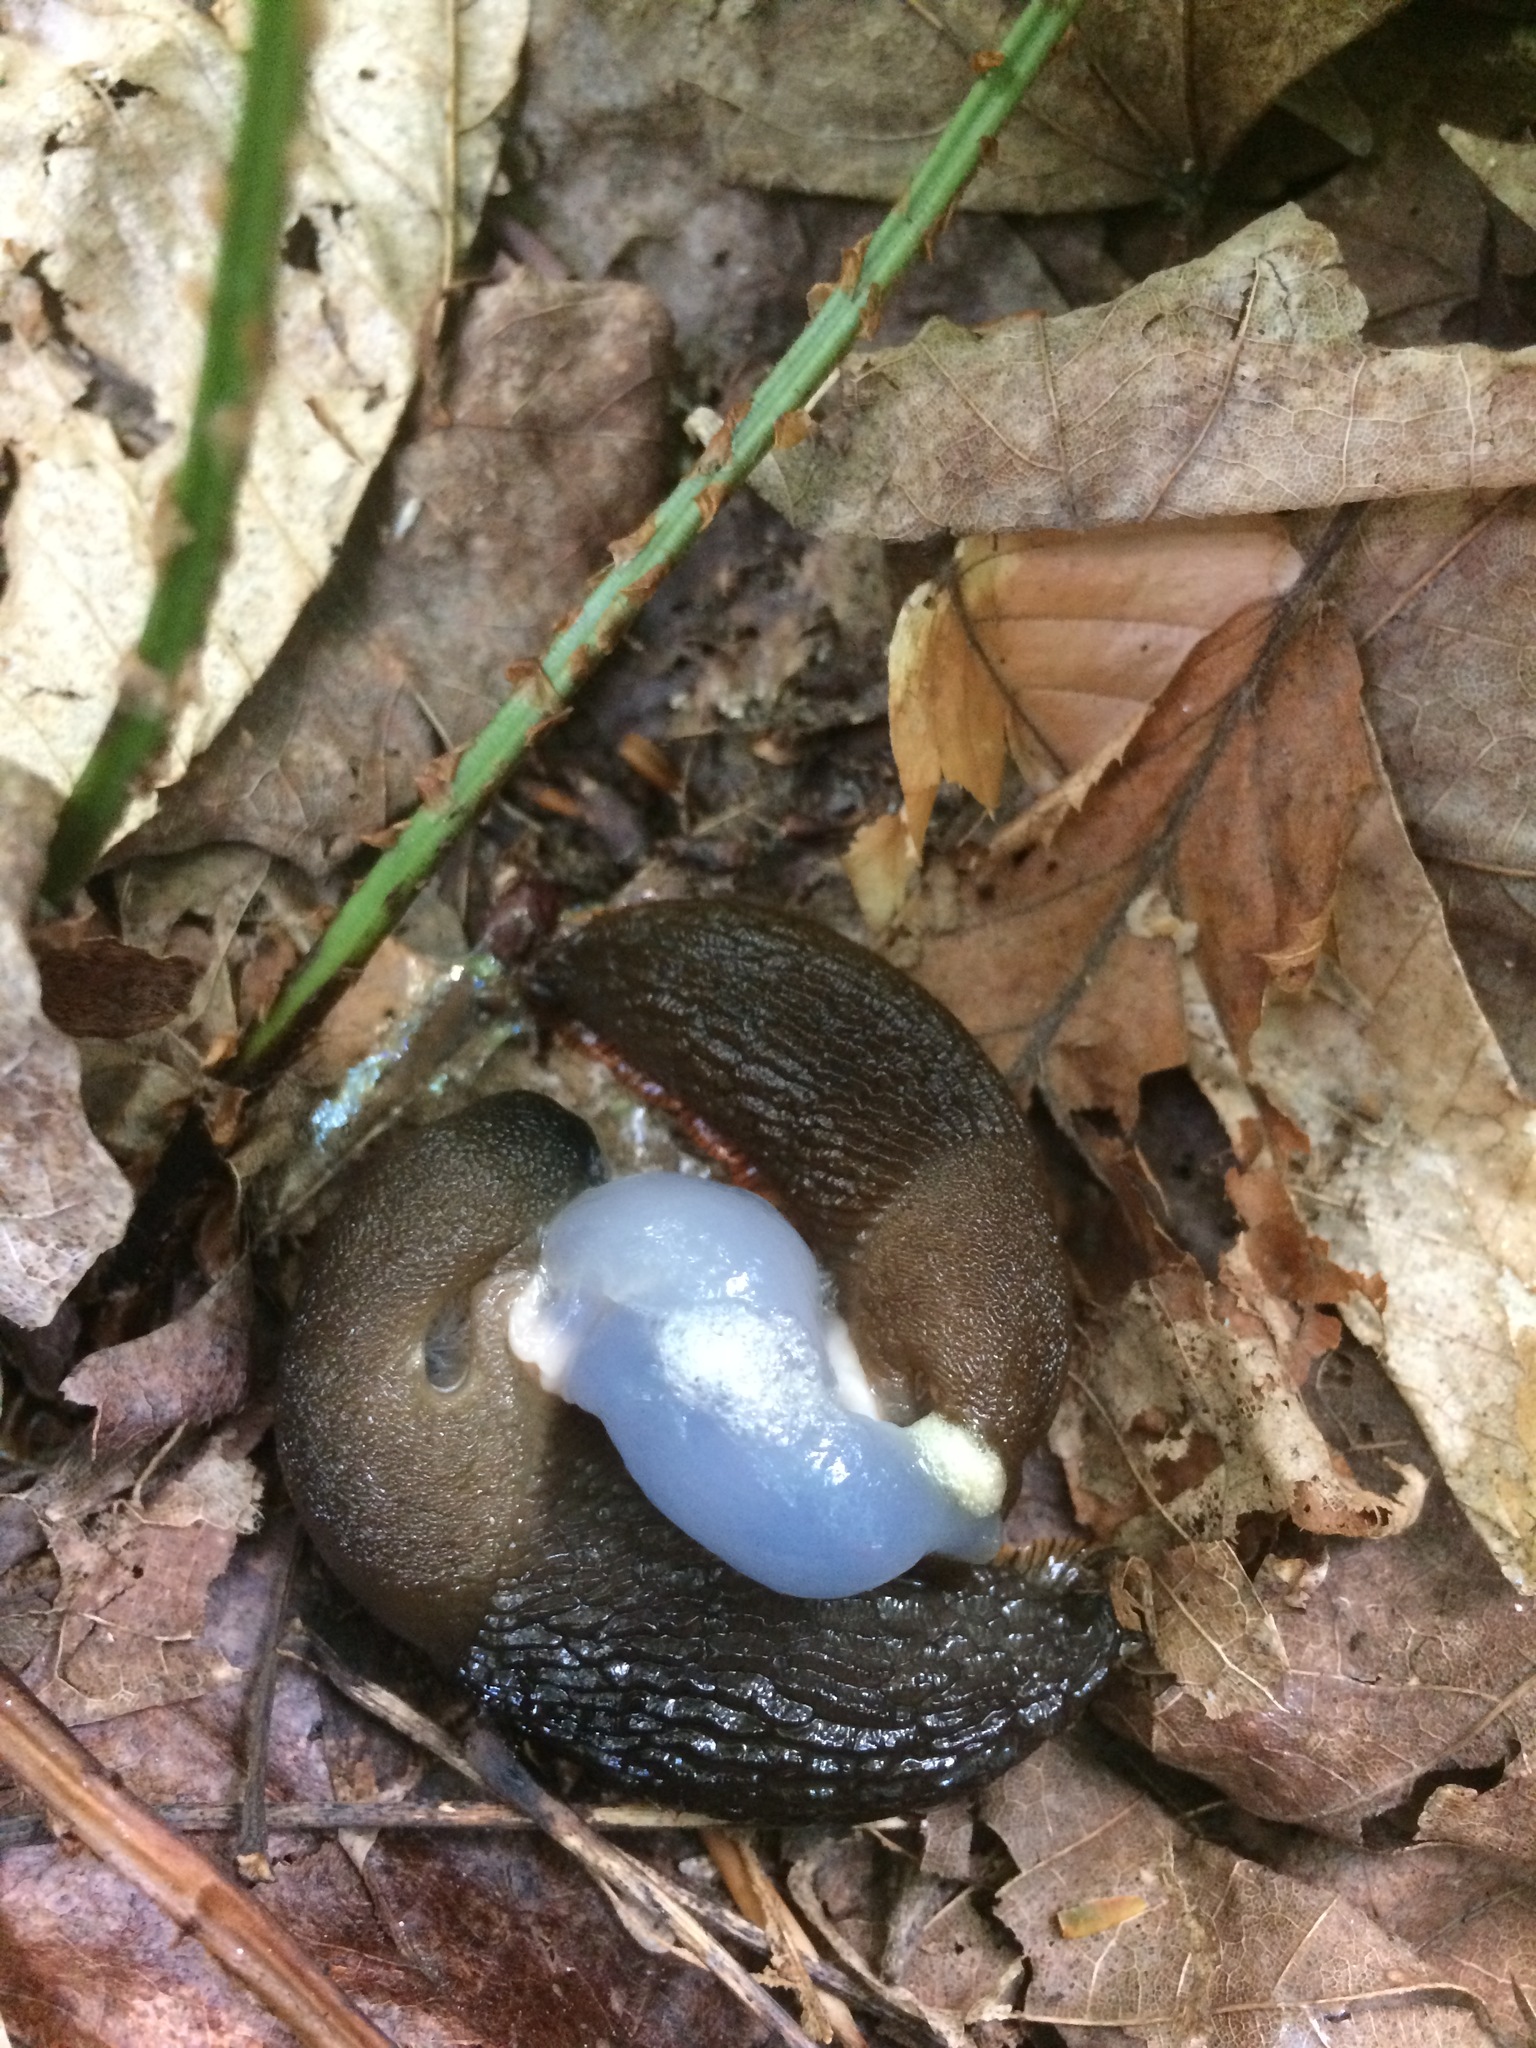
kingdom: Animalia
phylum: Mollusca
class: Gastropoda
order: Stylommatophora
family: Arionidae
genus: Arion
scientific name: Arion ater
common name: Black arion
